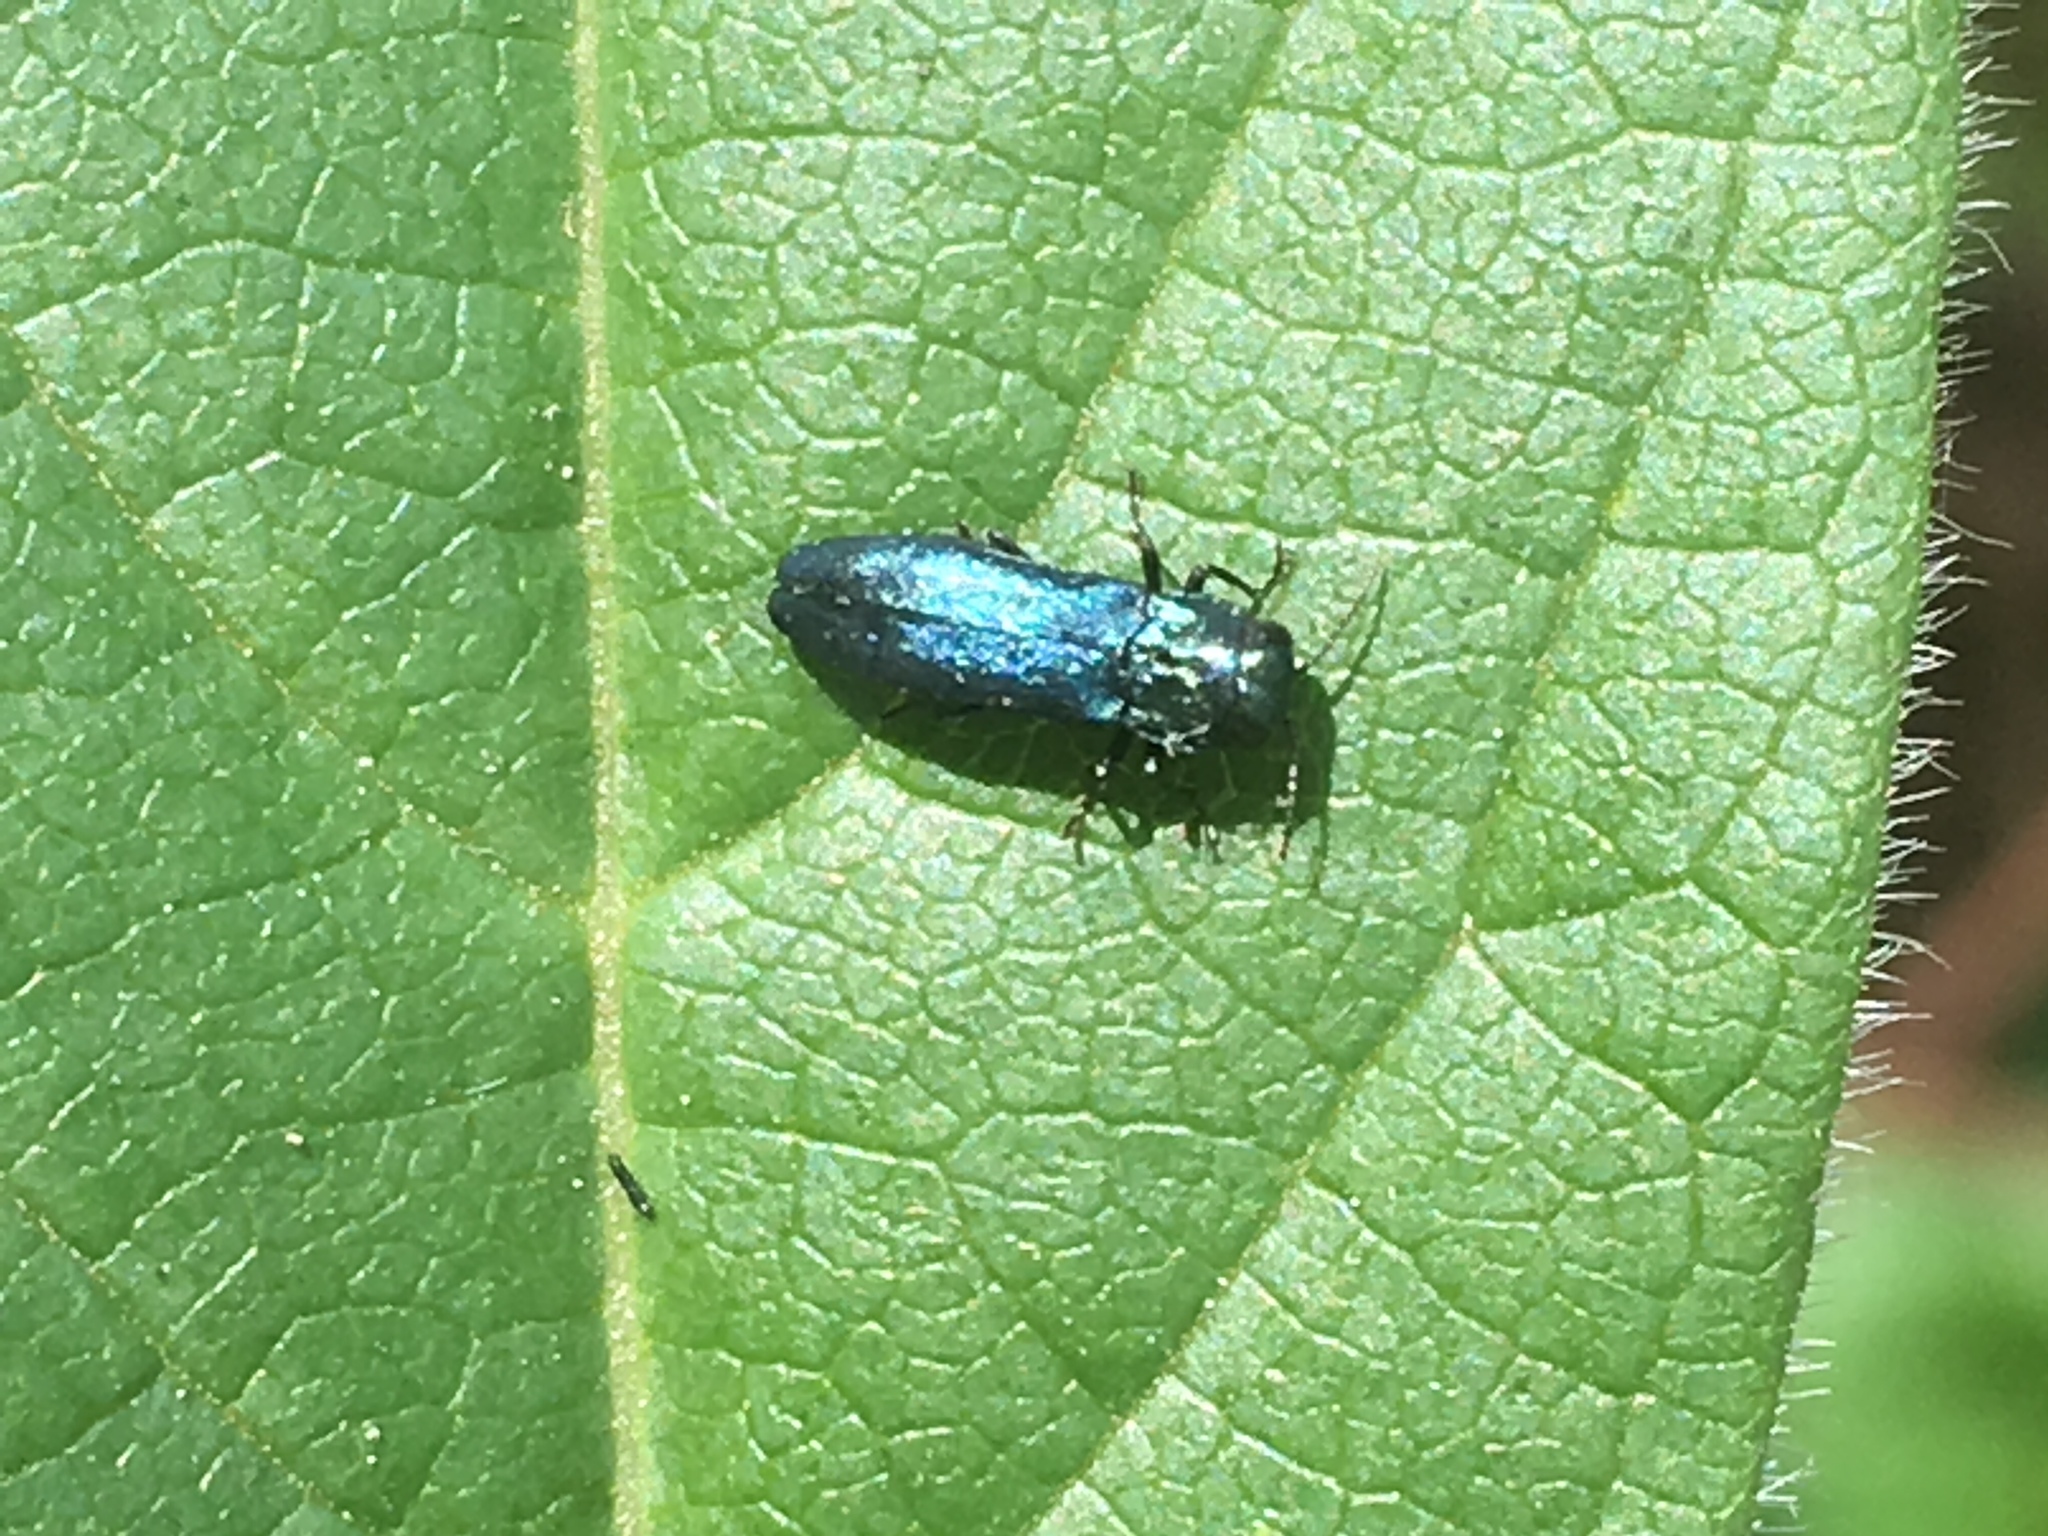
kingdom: Animalia
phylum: Arthropoda
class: Insecta
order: Coleoptera
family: Buprestidae
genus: Agrilus
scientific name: Agrilus cyanescens
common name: Bluish borer beetle
